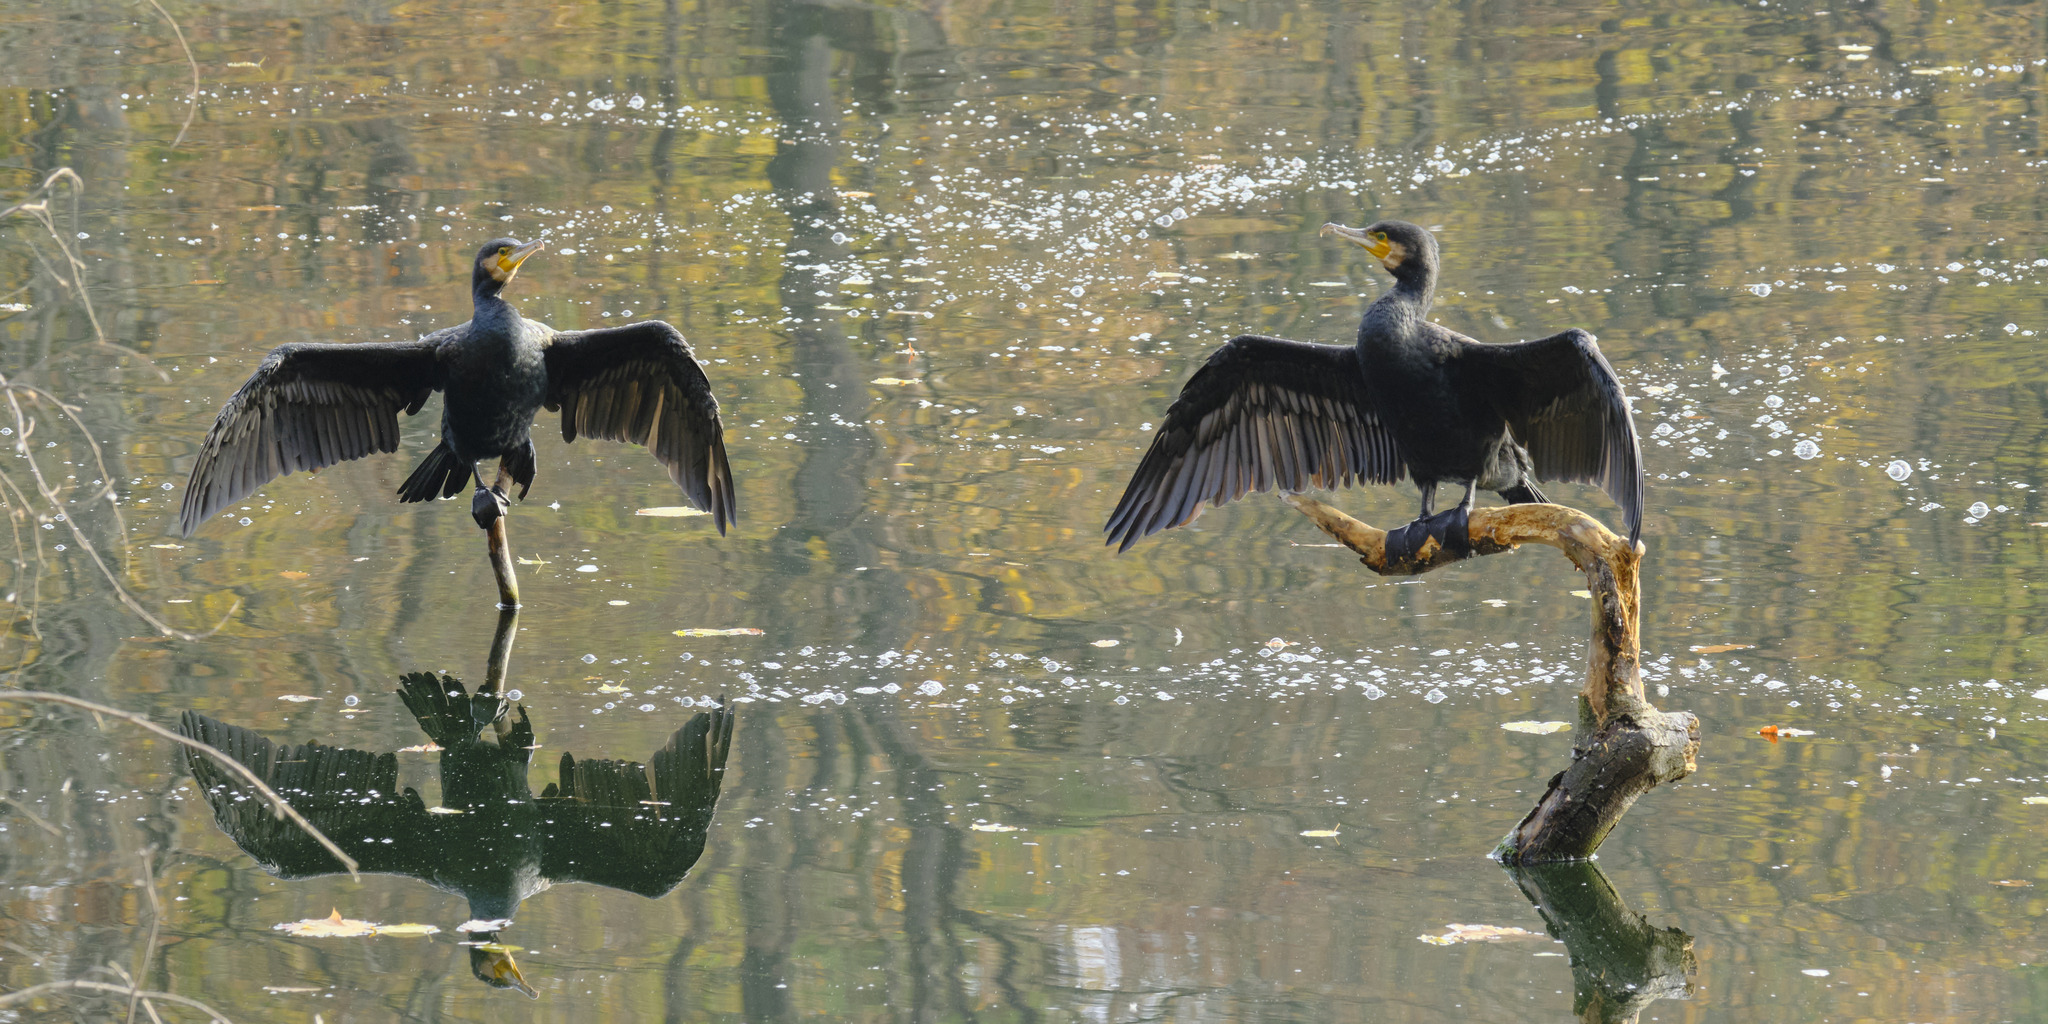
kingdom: Animalia
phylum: Chordata
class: Aves
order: Suliformes
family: Phalacrocoracidae
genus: Phalacrocorax
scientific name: Phalacrocorax carbo
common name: Great cormorant
